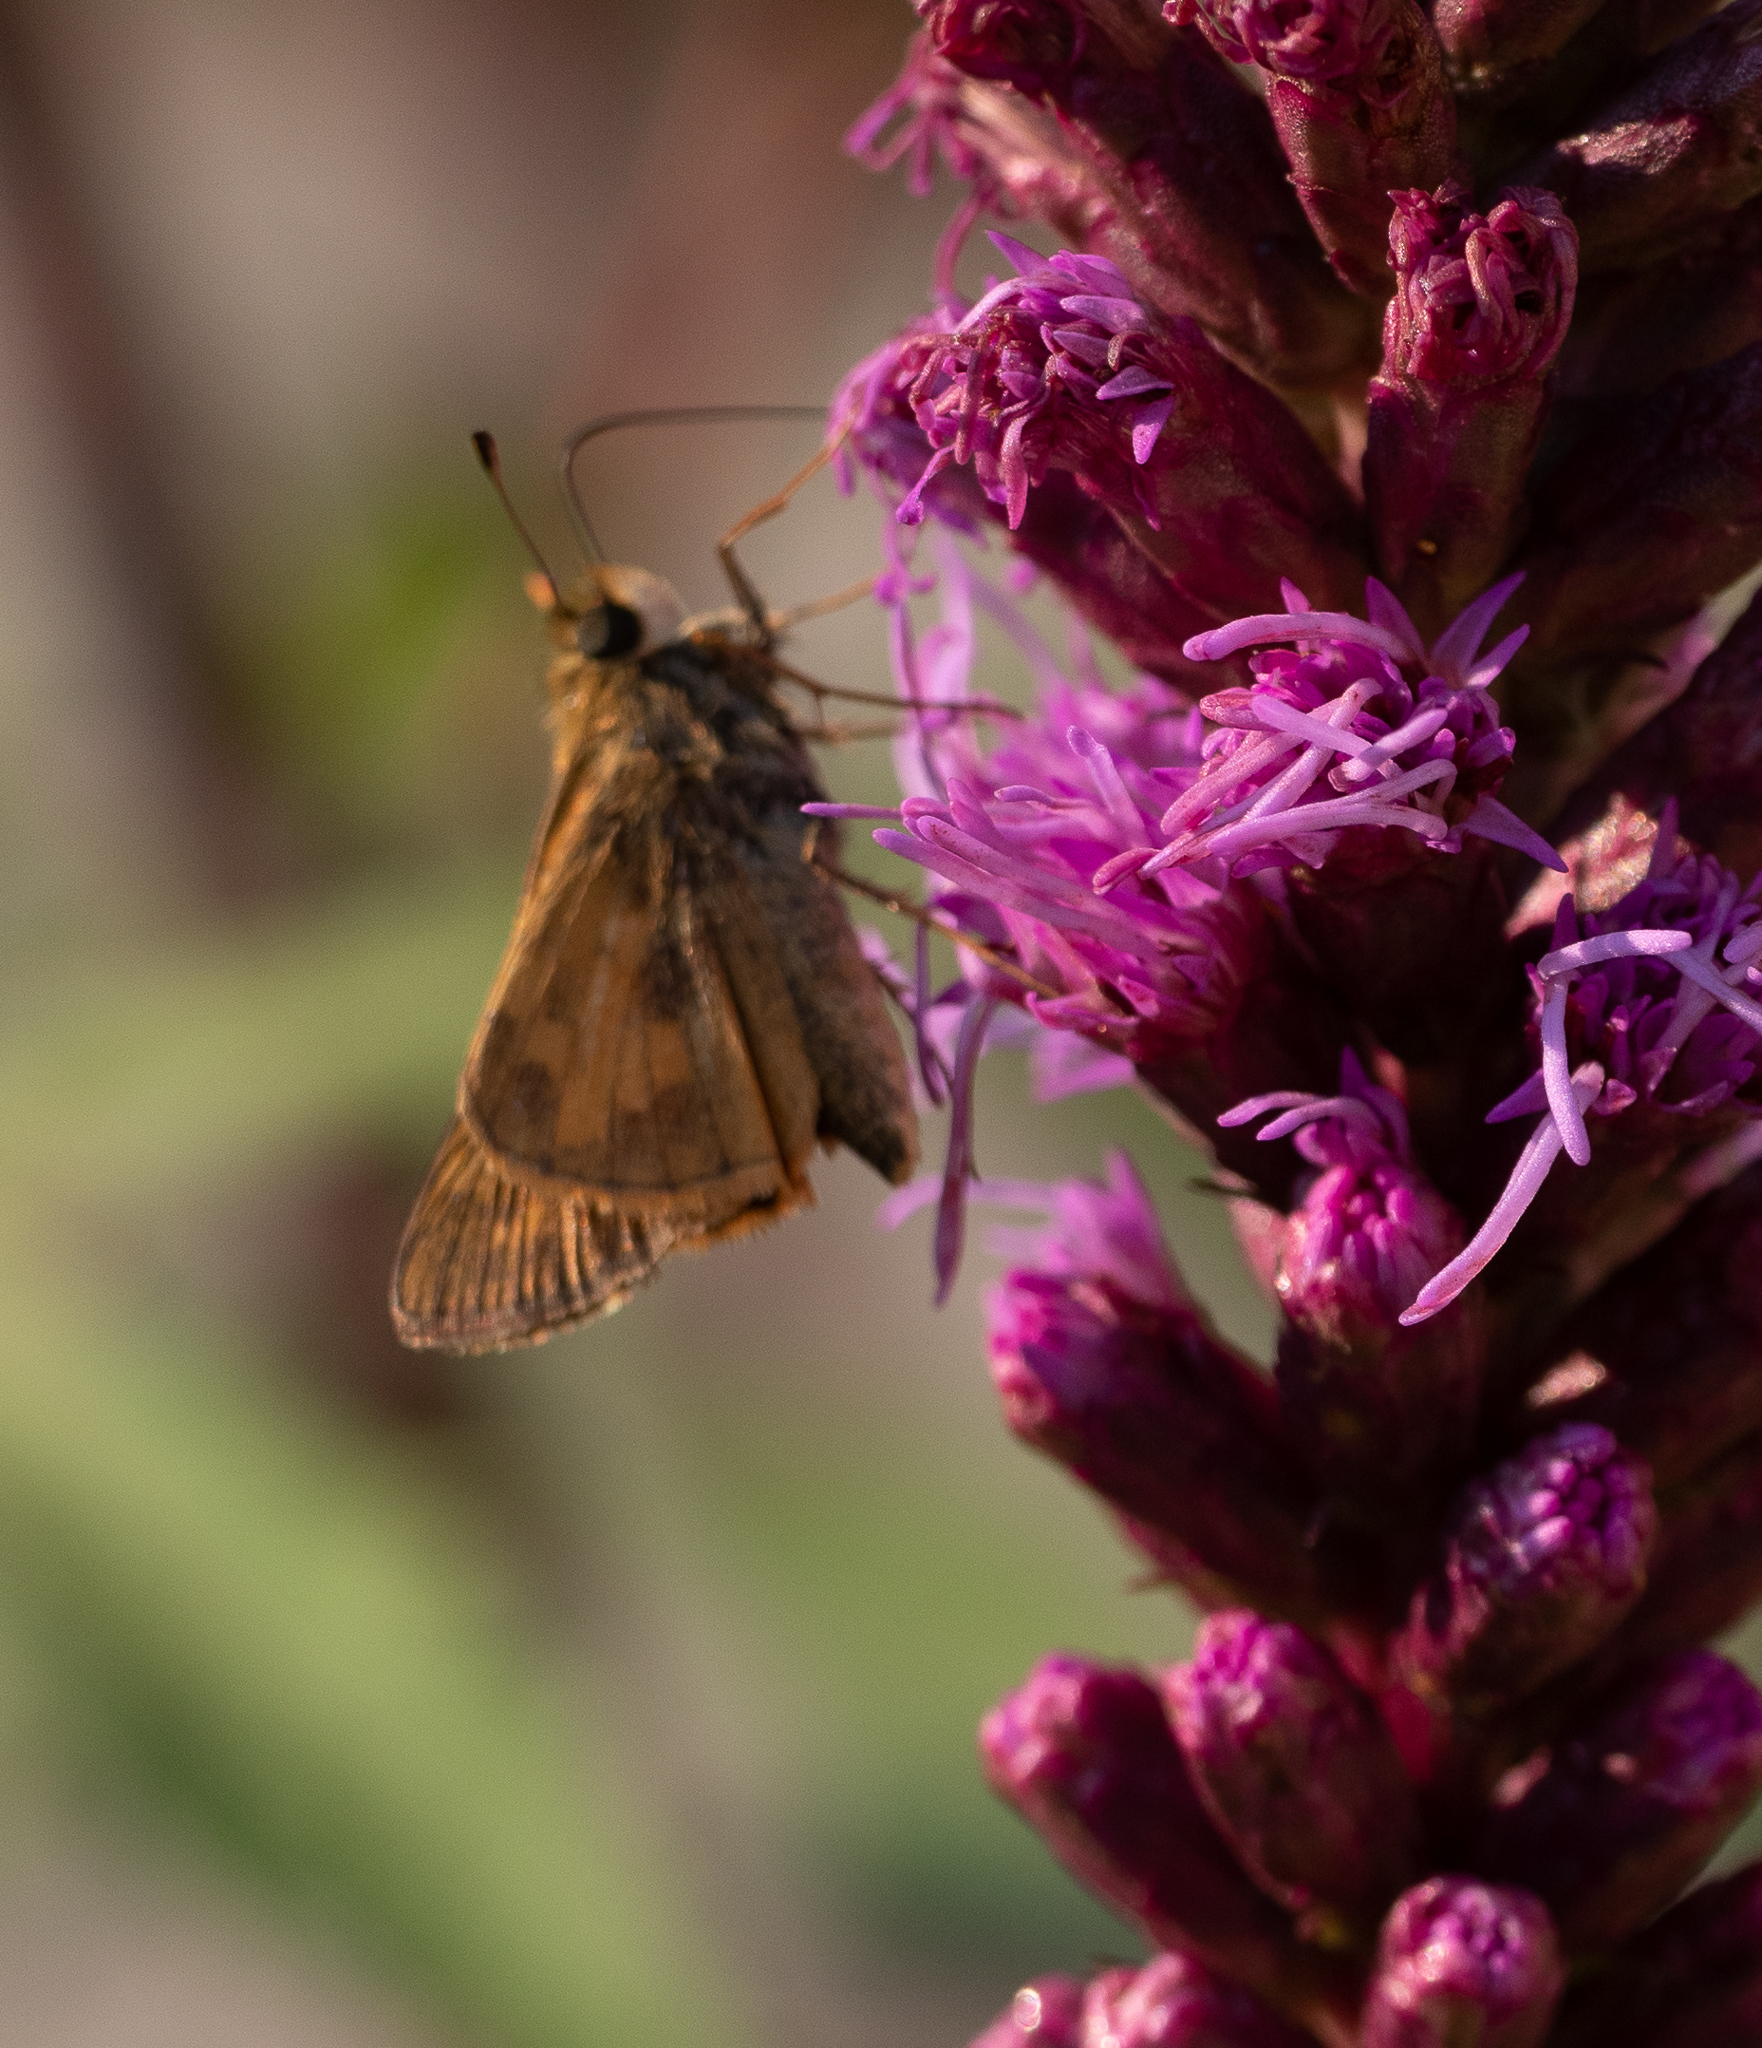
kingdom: Animalia
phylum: Arthropoda
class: Insecta
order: Lepidoptera
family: Hesperiidae
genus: Polites
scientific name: Polites coras
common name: Peck's skipper
